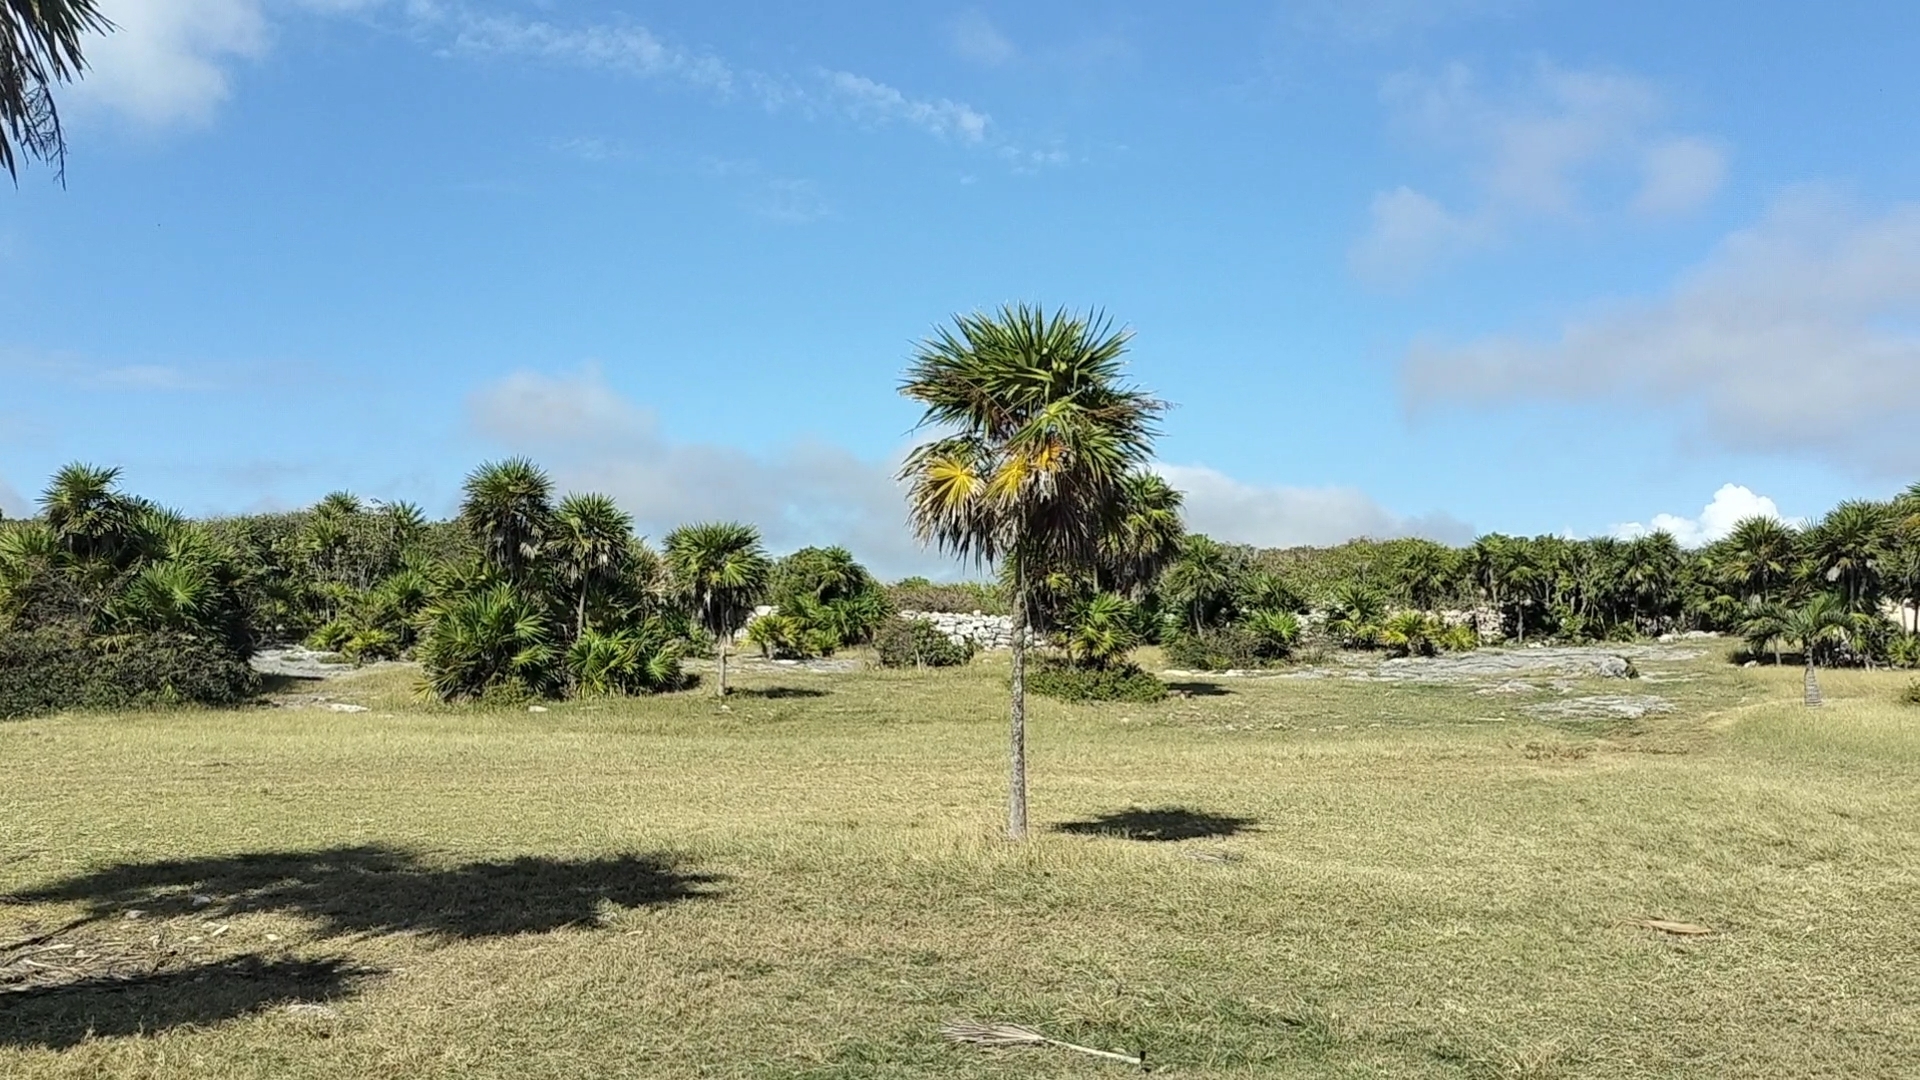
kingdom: Plantae
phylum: Tracheophyta
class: Liliopsida
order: Arecales
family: Arecaceae
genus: Thrinax
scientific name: Thrinax radiata
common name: Florida thatch
